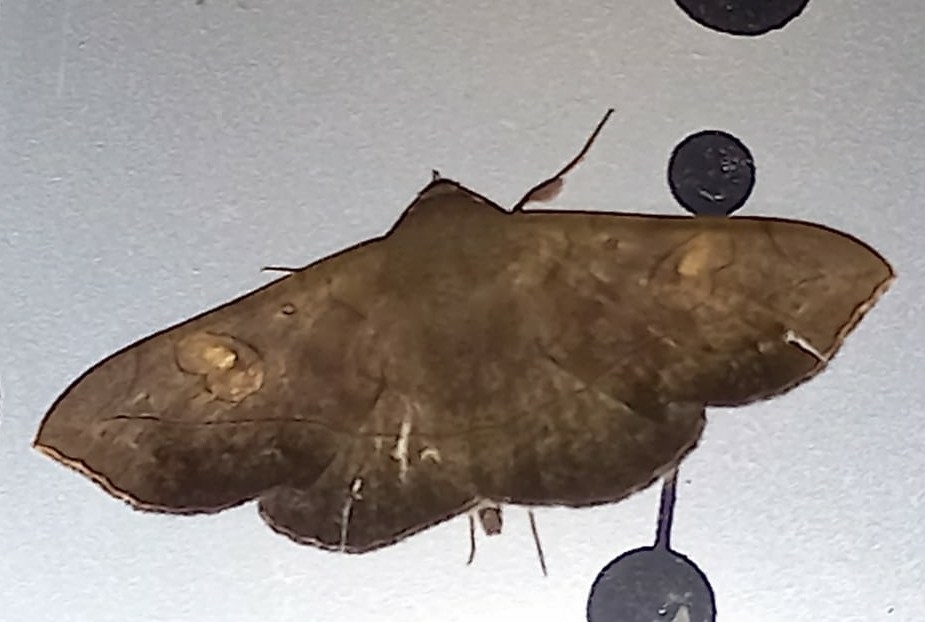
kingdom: Animalia
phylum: Arthropoda
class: Insecta
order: Lepidoptera
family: Erebidae
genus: Epitausa
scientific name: Epitausa prona
